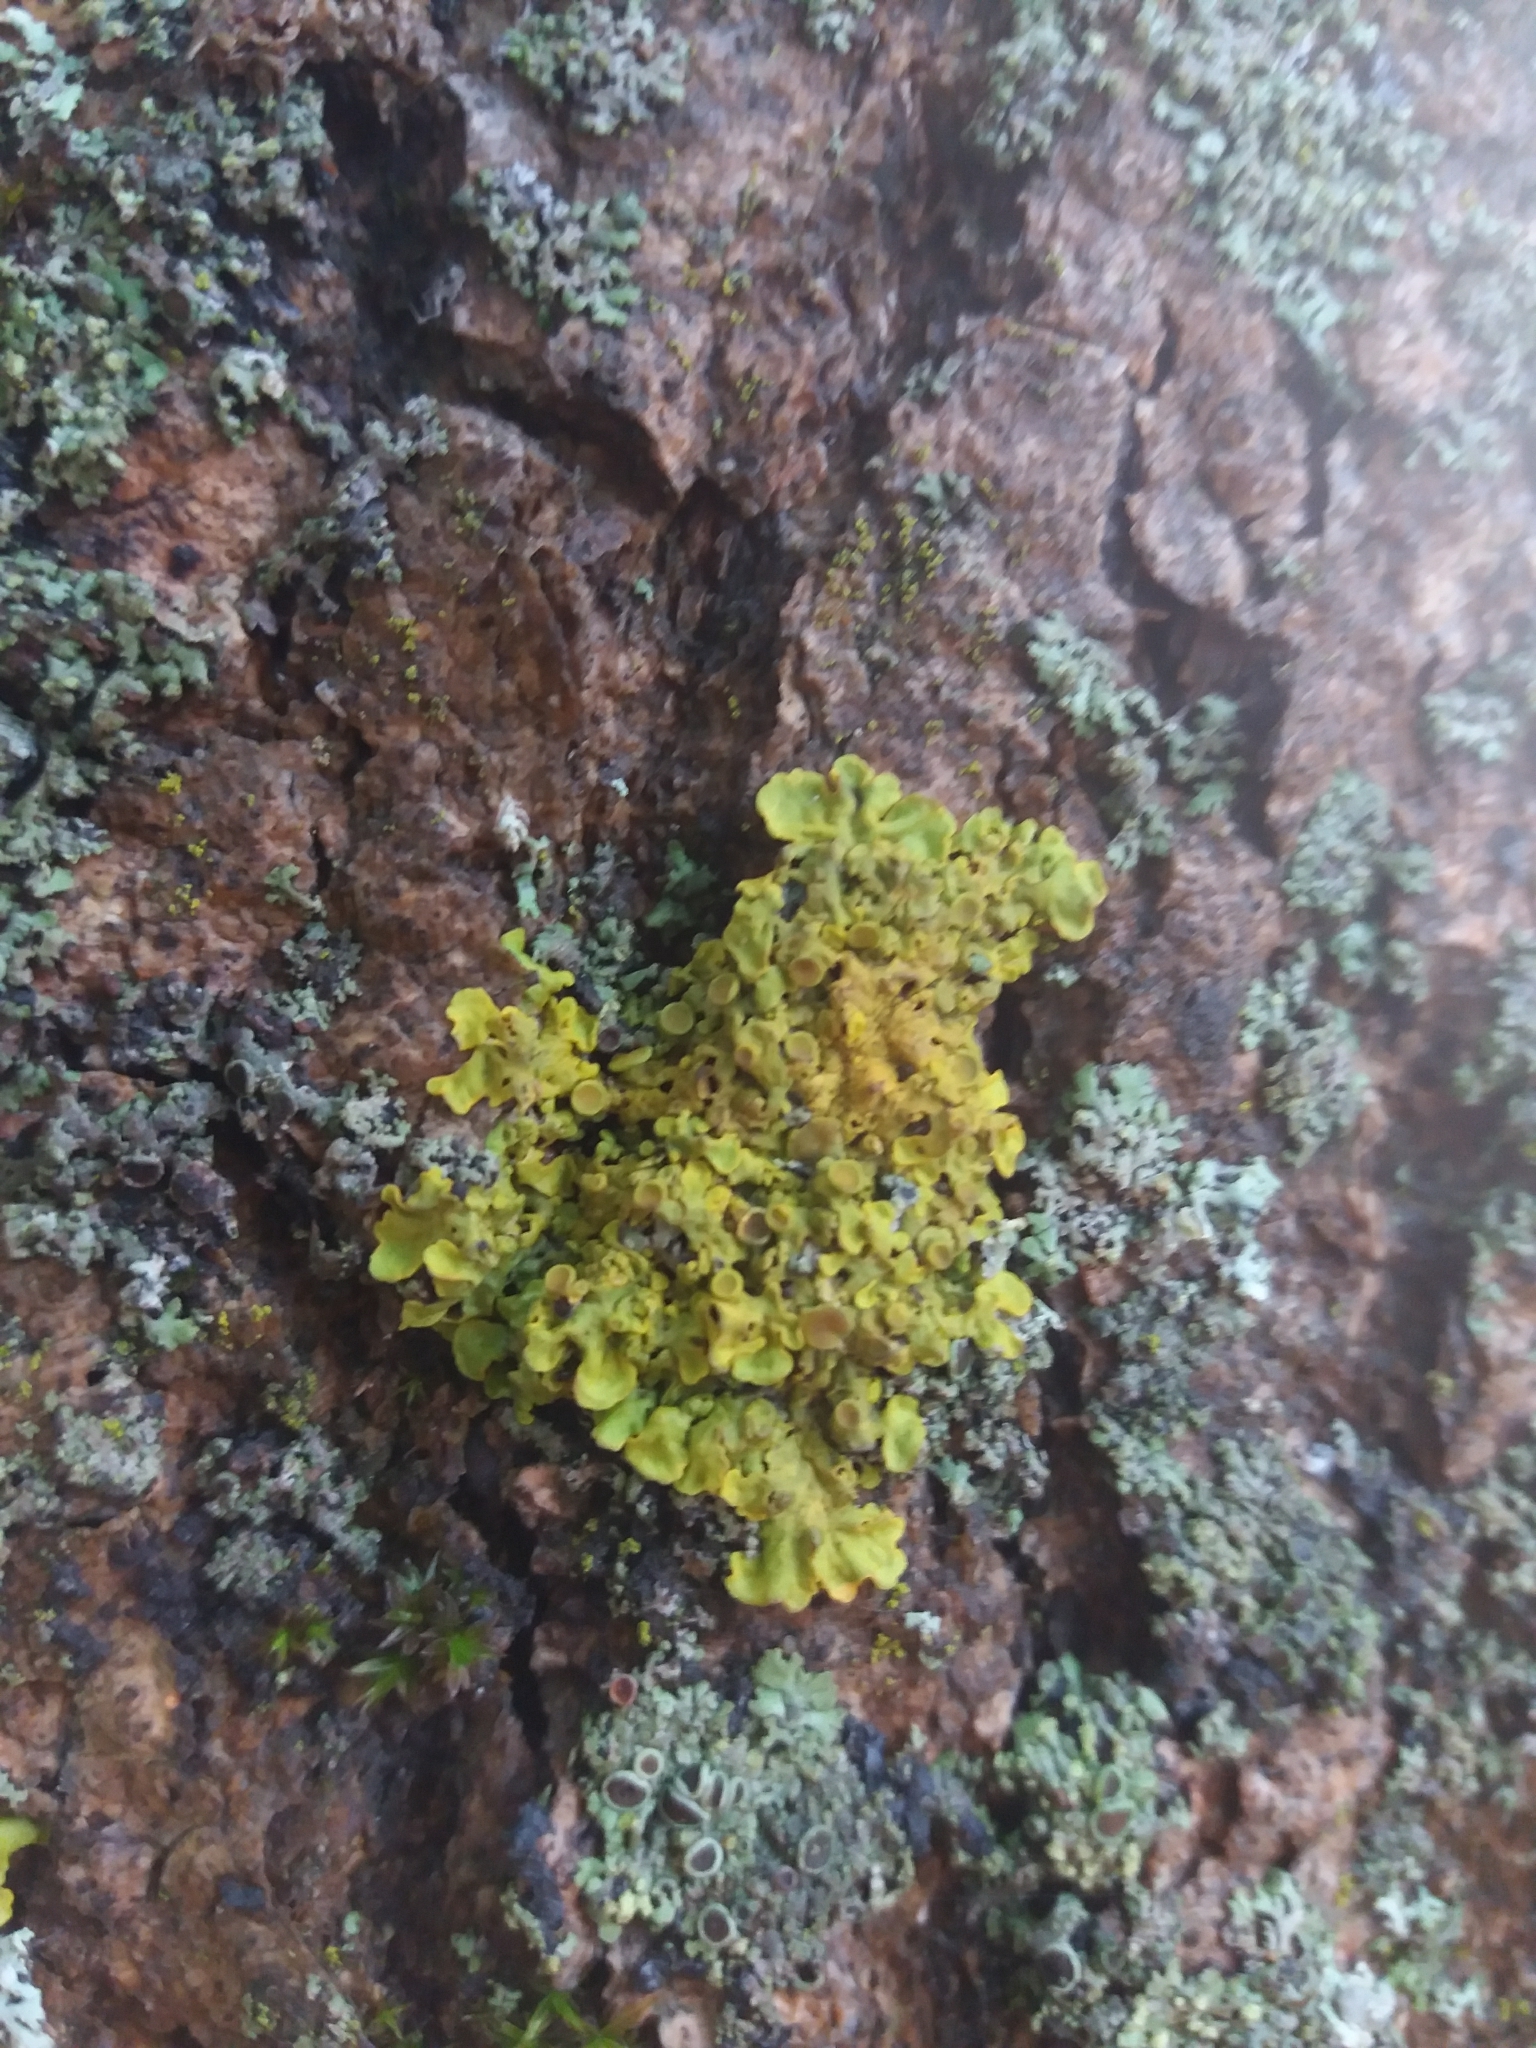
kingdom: Fungi
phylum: Ascomycota
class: Lecanoromycetes
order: Teloschistales
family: Teloschistaceae
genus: Xanthoria
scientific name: Xanthoria parietina
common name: Common orange lichen
